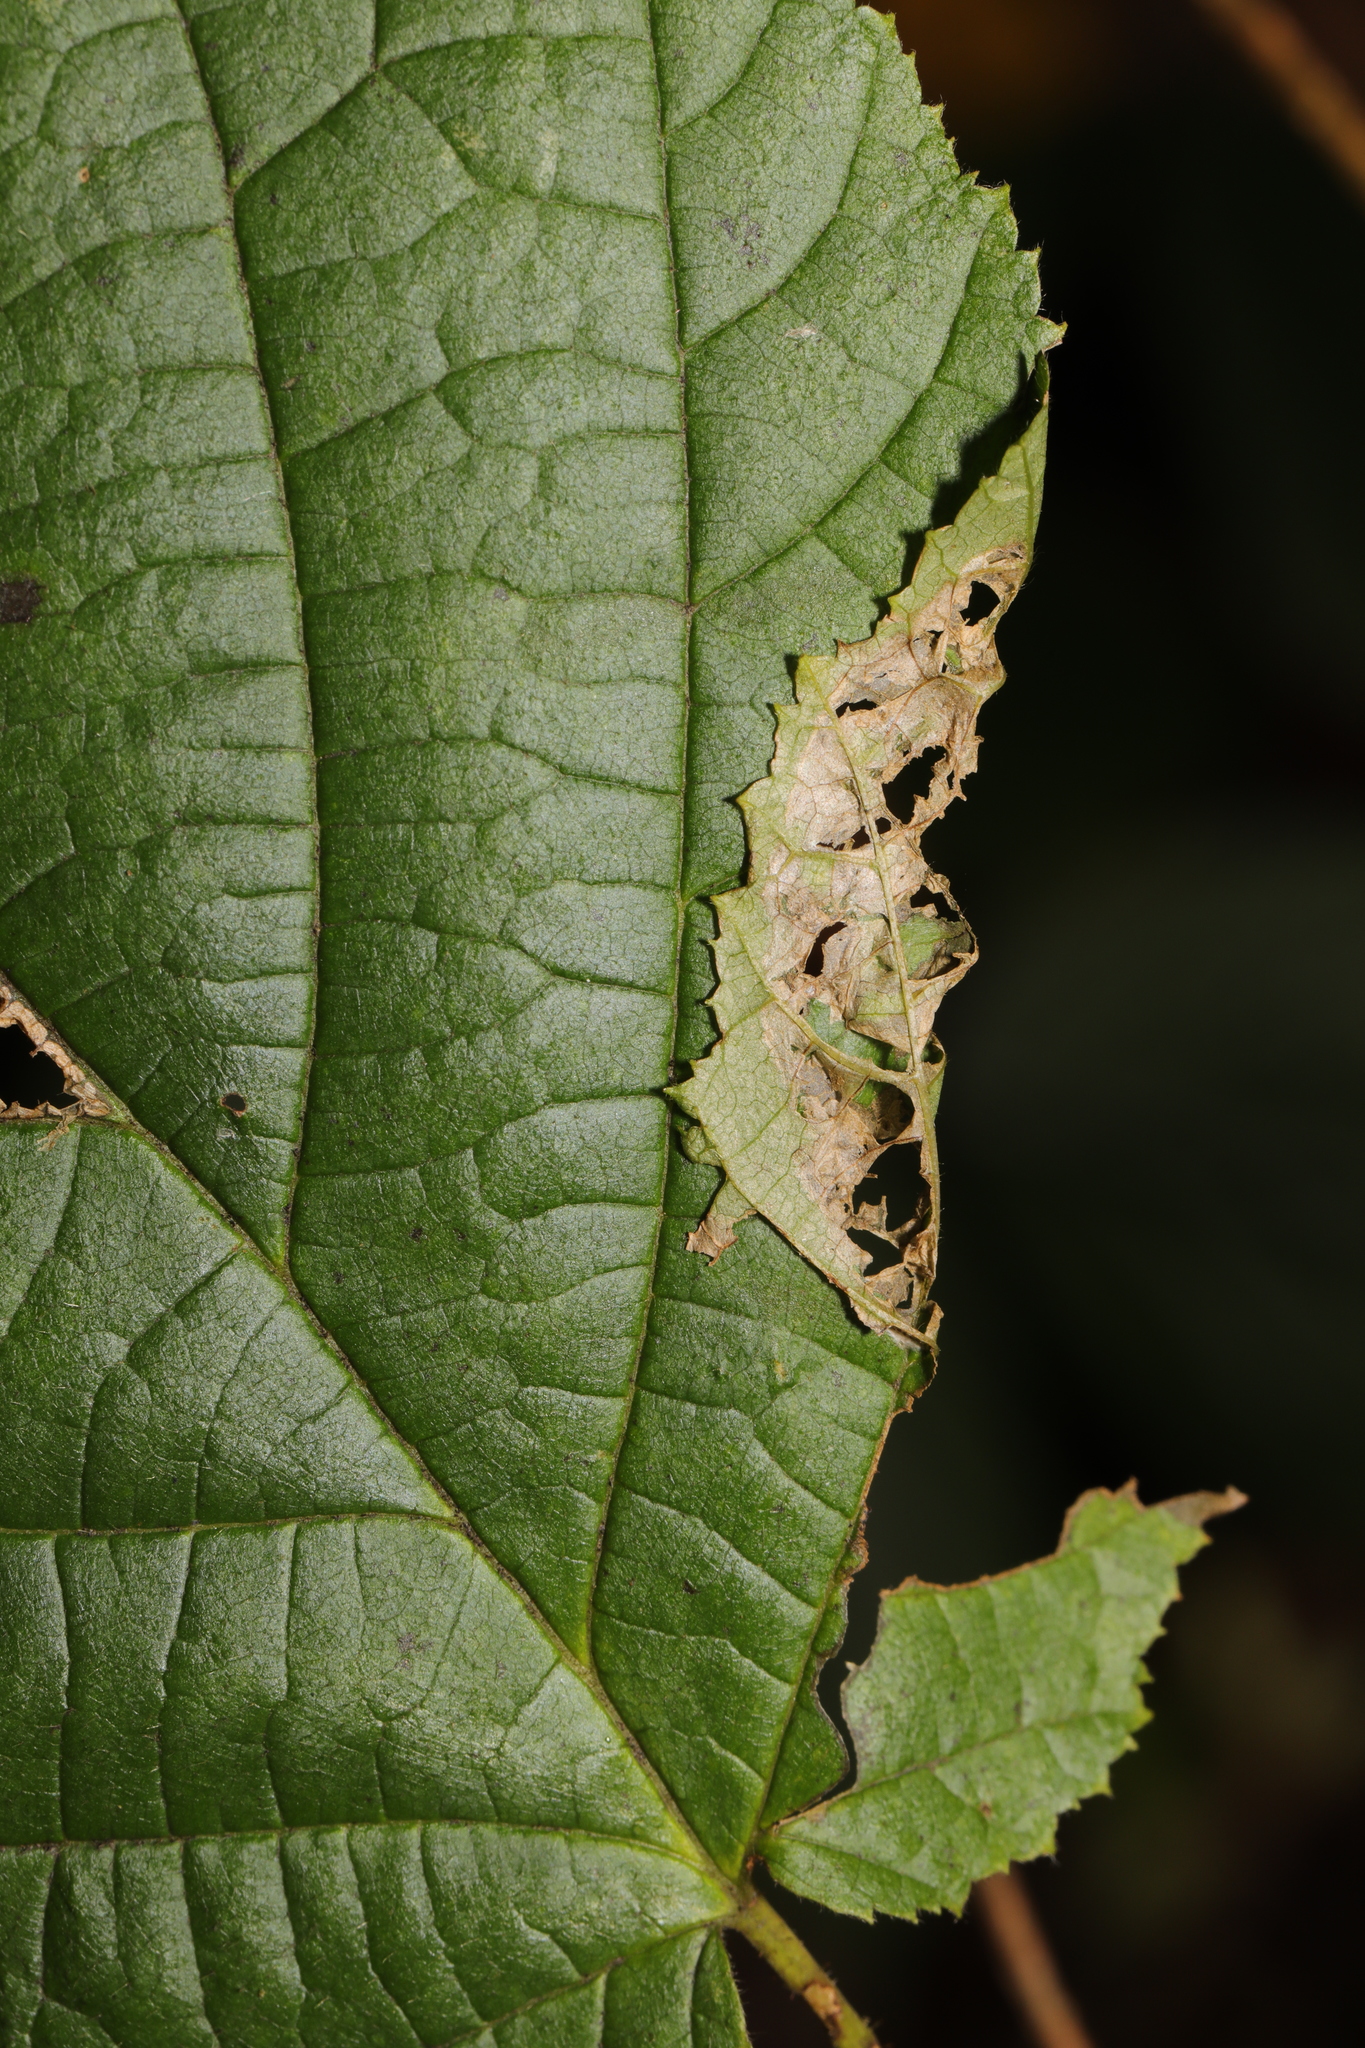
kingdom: Animalia
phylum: Arthropoda
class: Insecta
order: Lepidoptera
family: Gracillariidae
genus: Parornix
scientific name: Parornix devoniella
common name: Hazel slender
